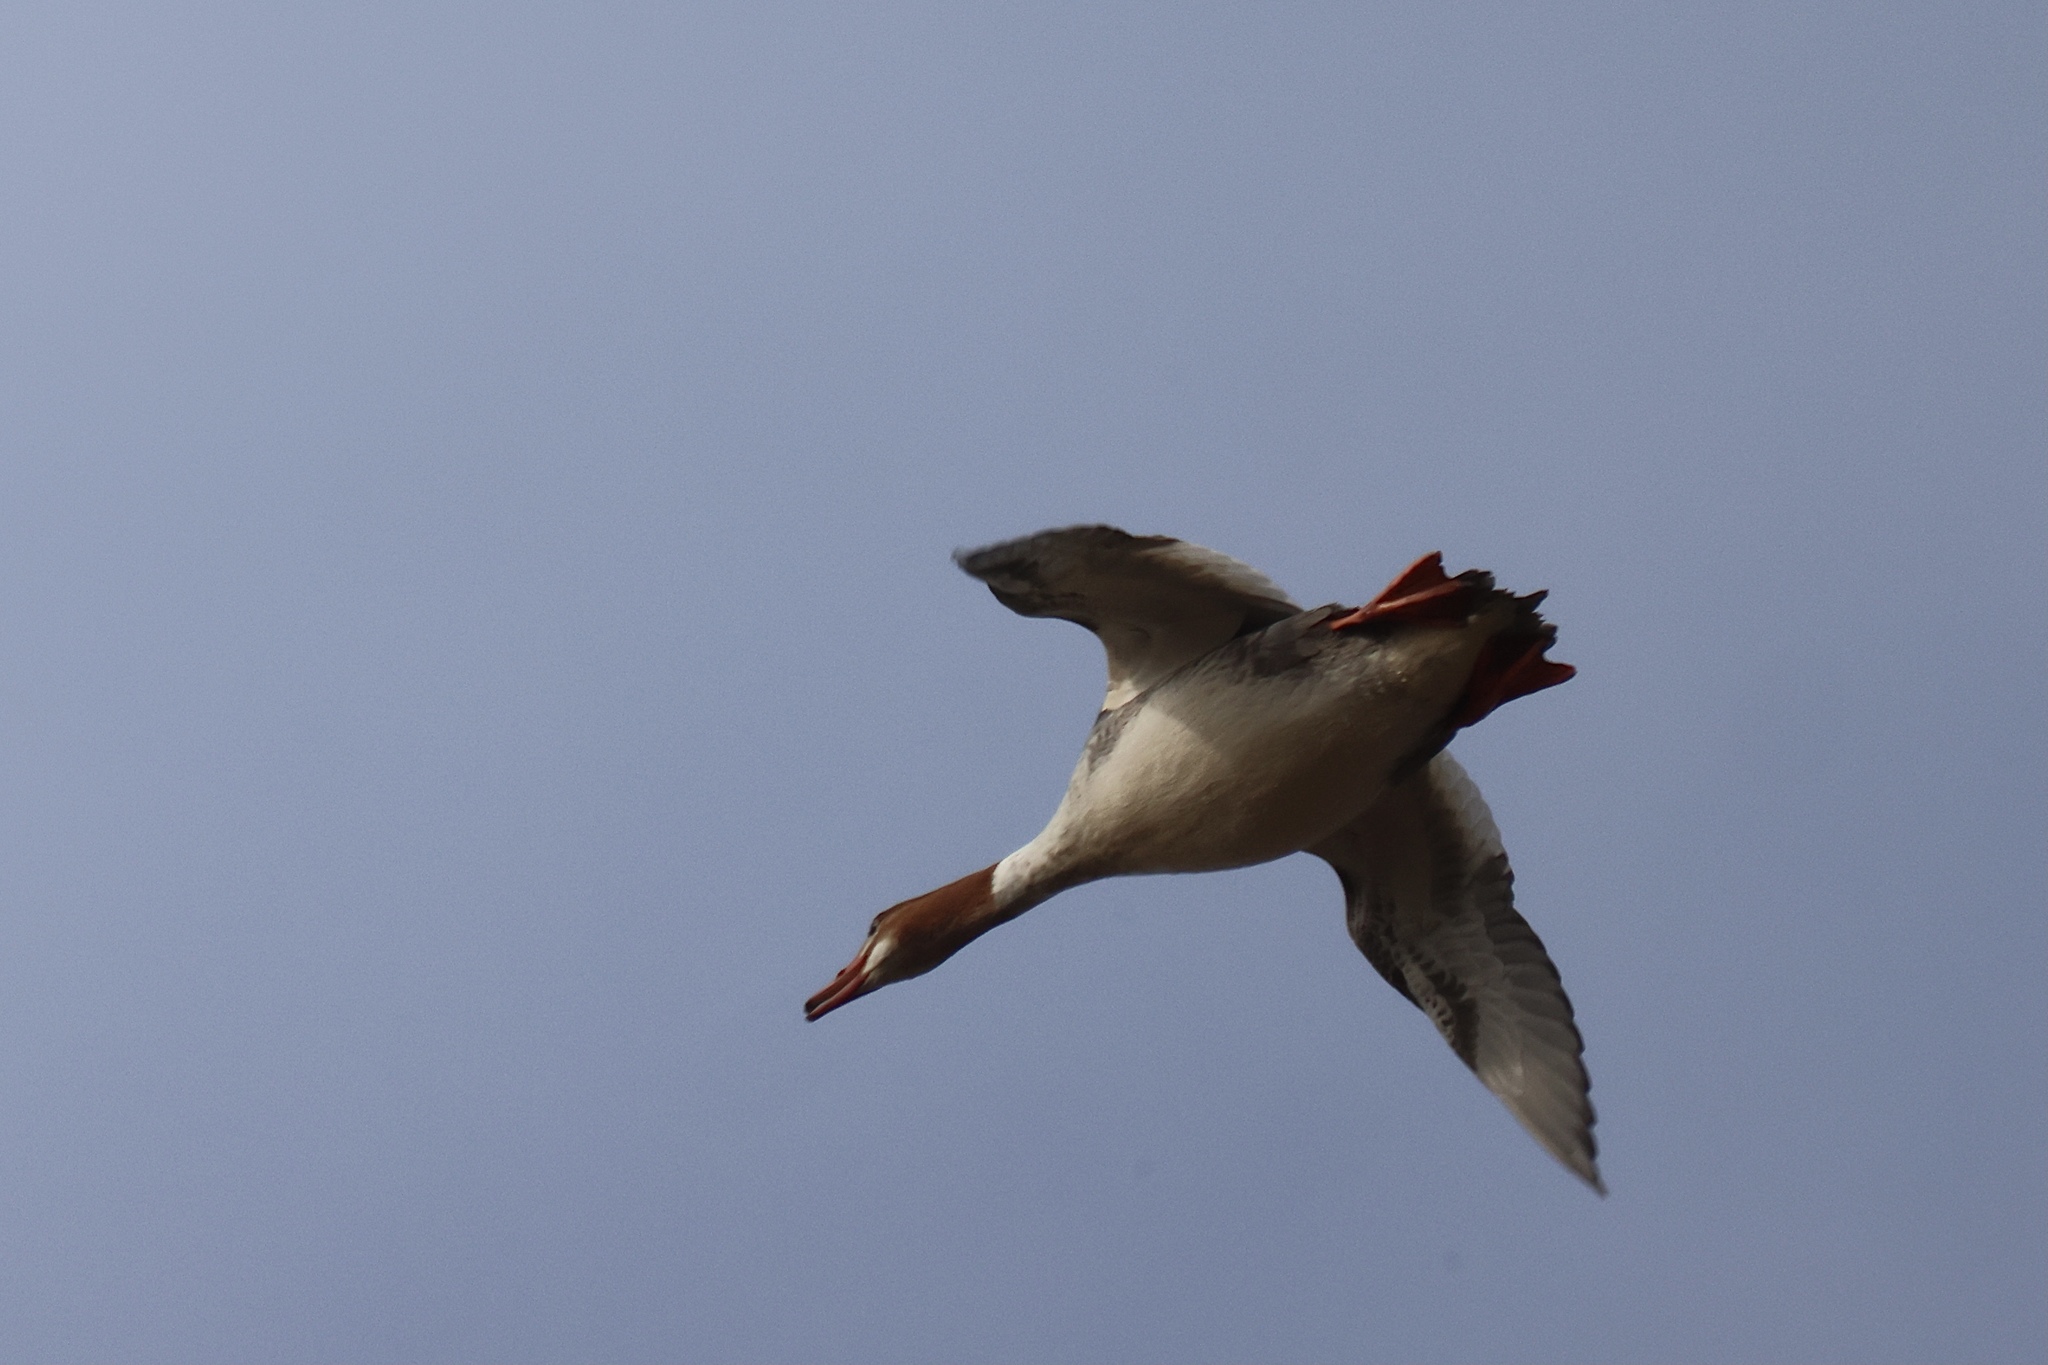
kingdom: Animalia
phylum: Chordata
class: Aves
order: Anseriformes
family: Anatidae
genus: Mergus
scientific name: Mergus merganser
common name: Common merganser
